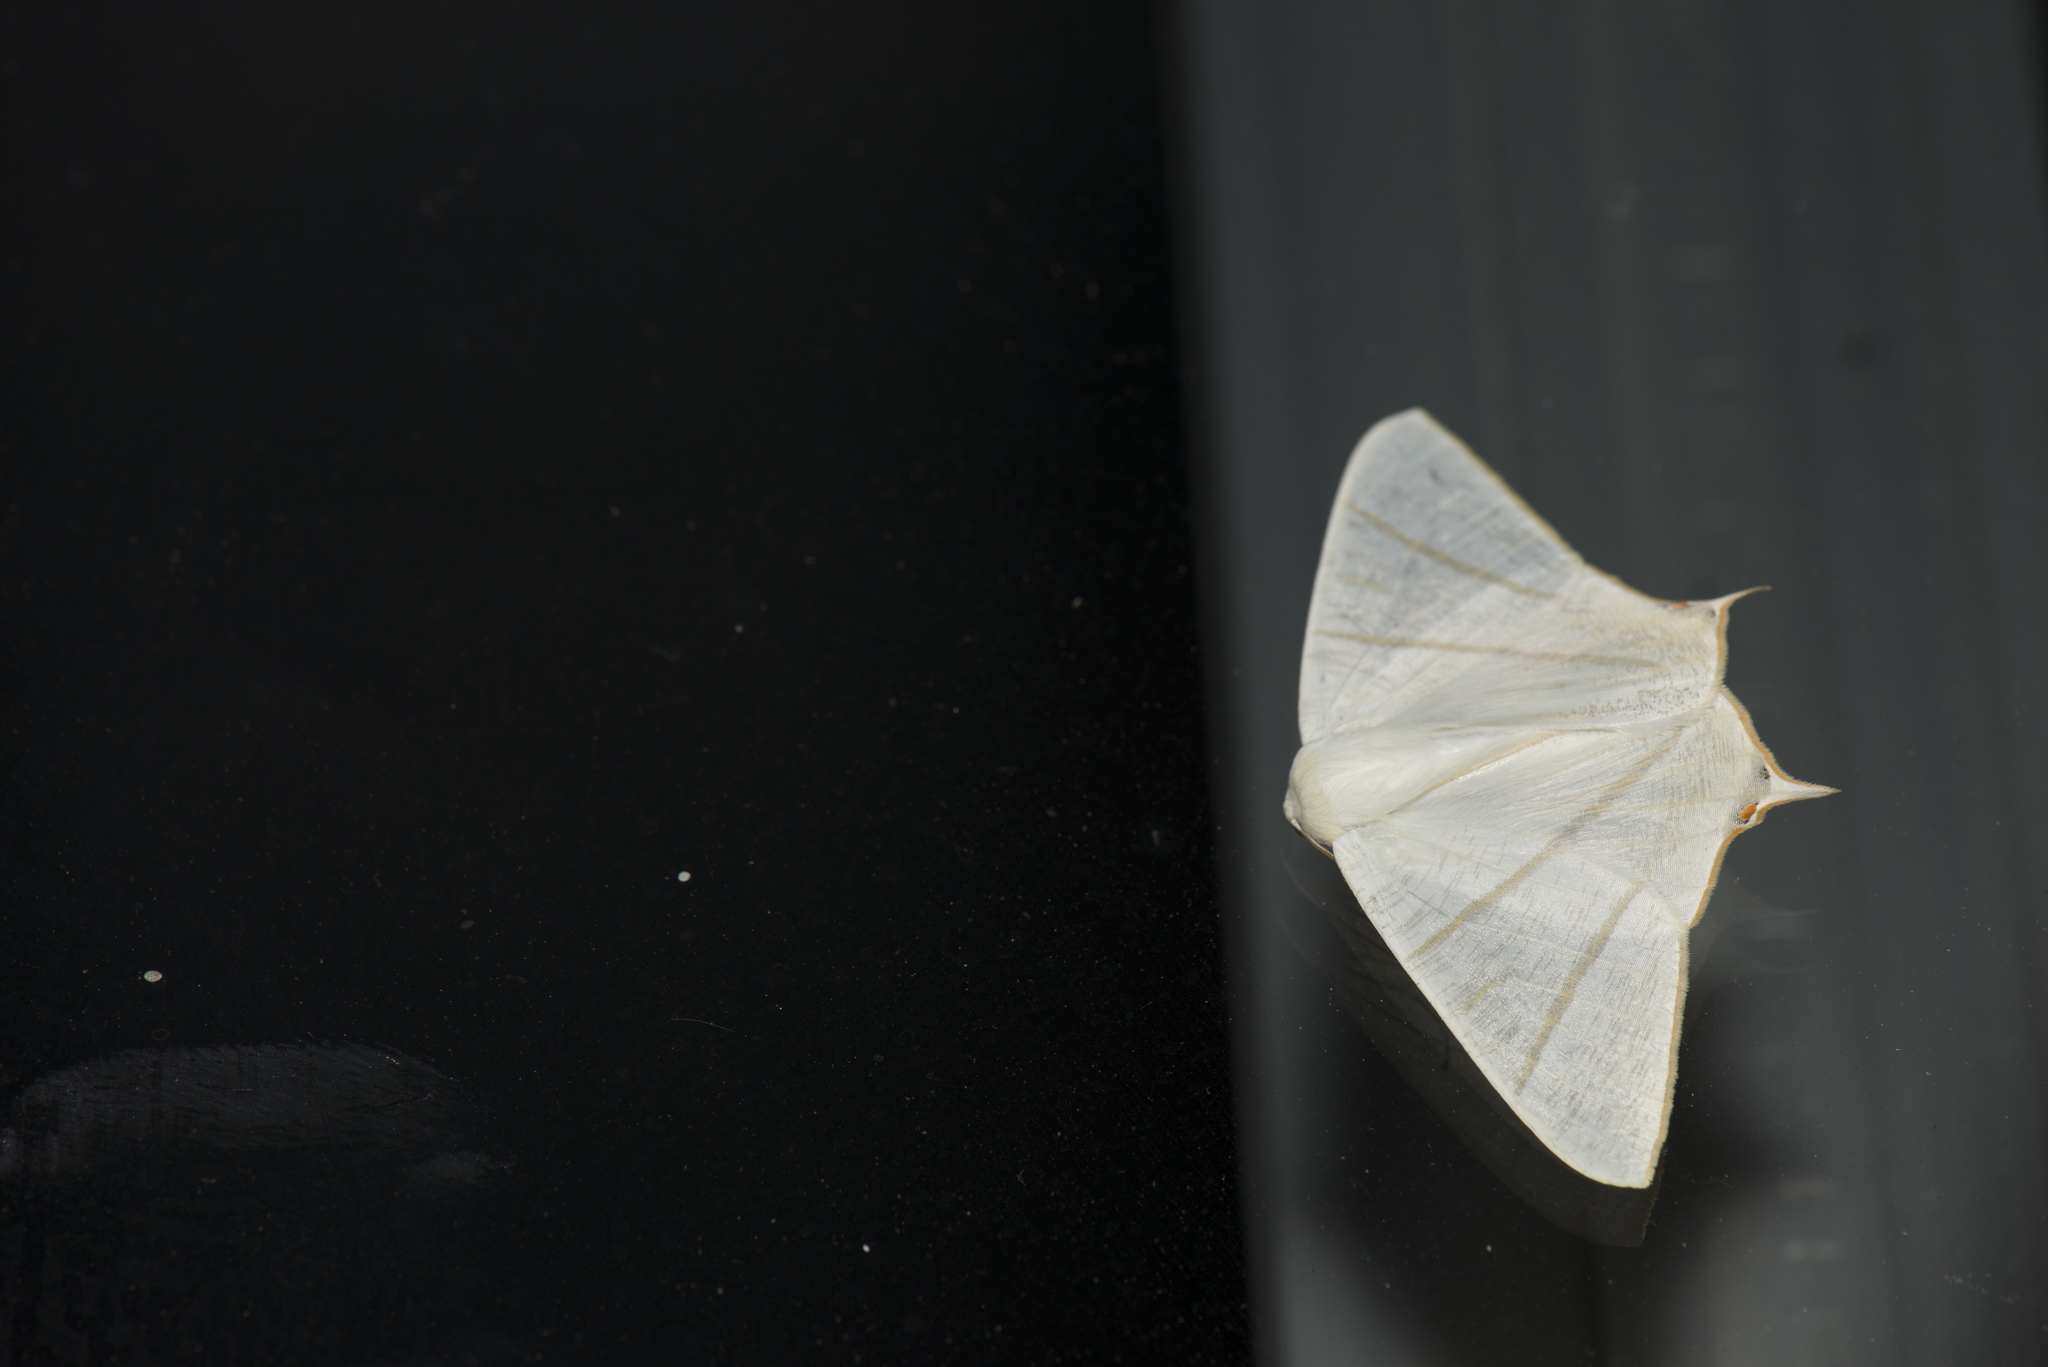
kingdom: Animalia
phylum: Arthropoda
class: Insecta
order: Lepidoptera
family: Geometridae
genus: Ourapteryx
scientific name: Ourapteryx changi
